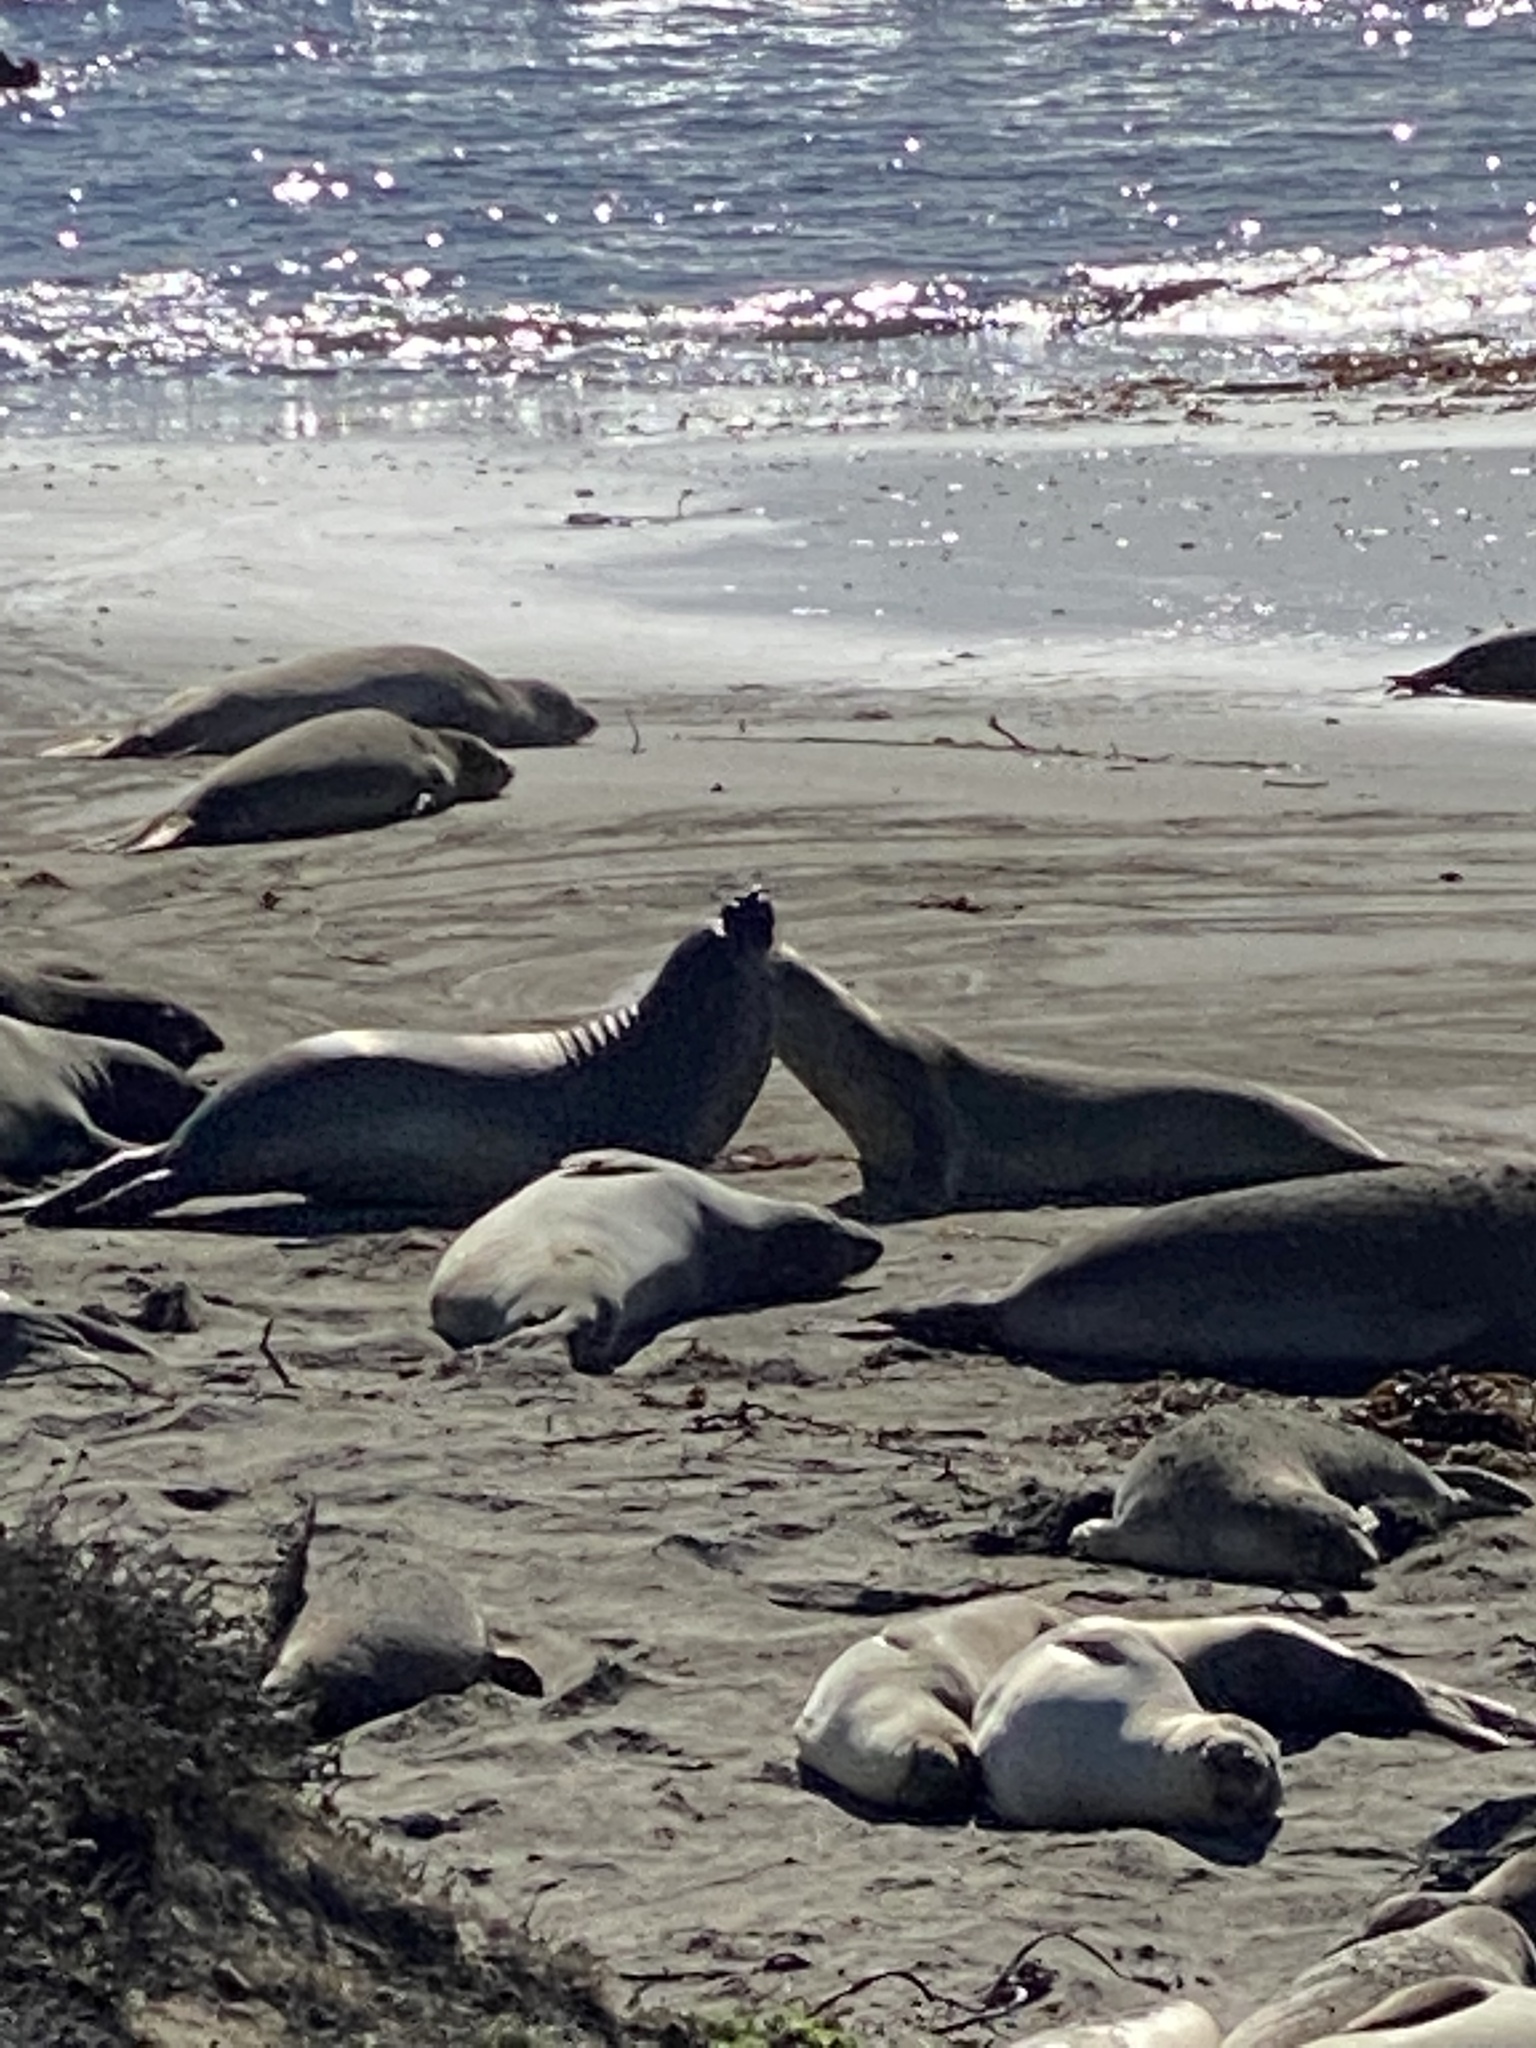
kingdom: Animalia
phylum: Chordata
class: Mammalia
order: Carnivora
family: Phocidae
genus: Mirounga
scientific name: Mirounga angustirostris
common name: Northern elephant seal
